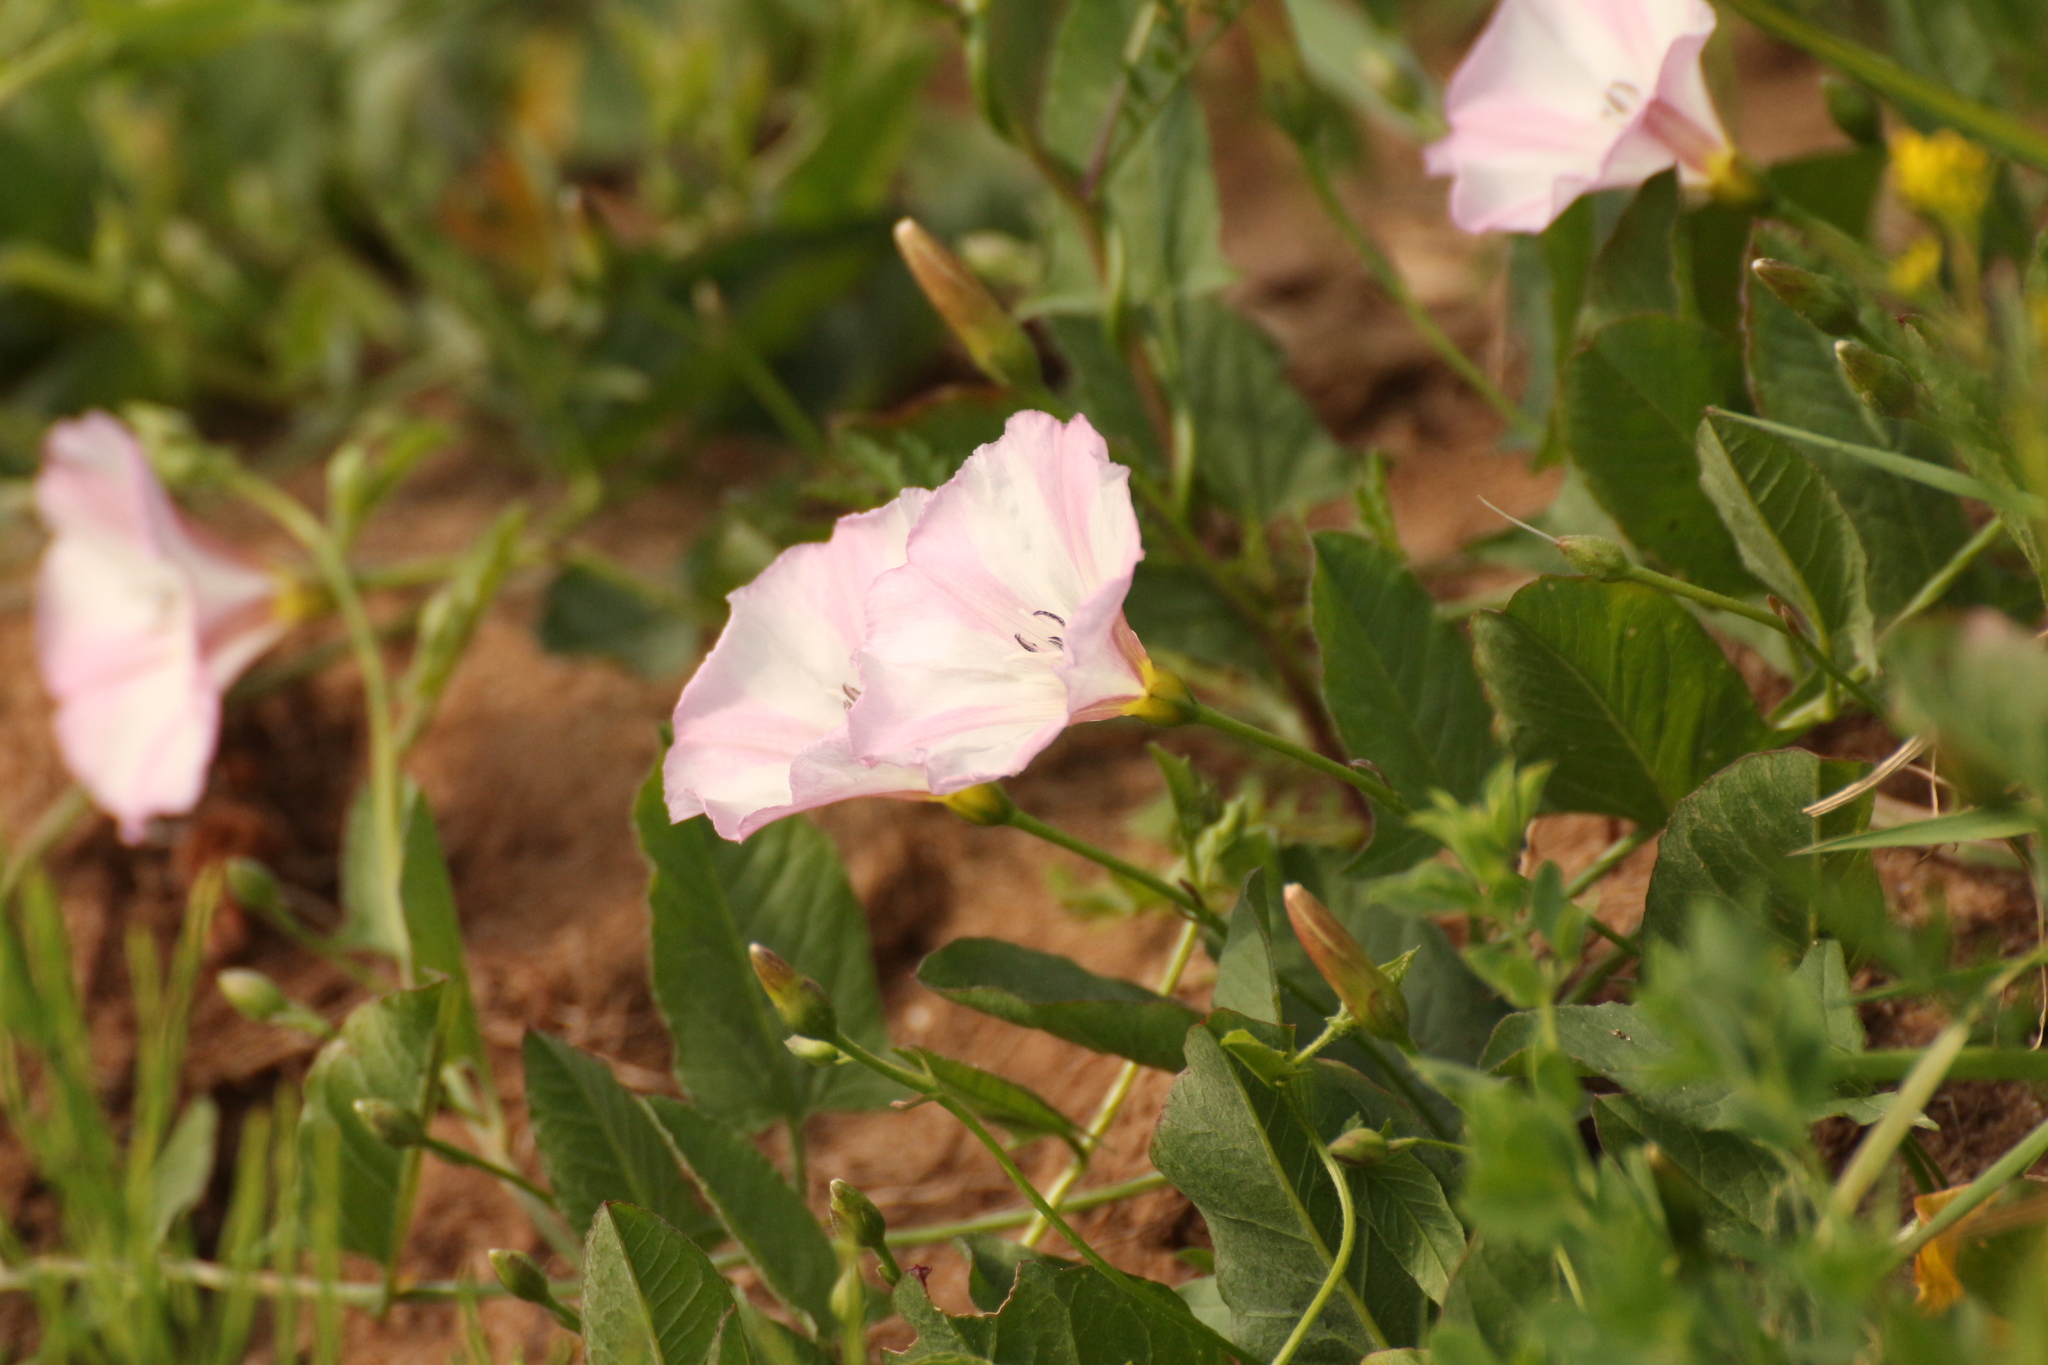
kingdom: Plantae
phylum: Tracheophyta
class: Magnoliopsida
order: Solanales
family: Convolvulaceae
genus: Convolvulus
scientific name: Convolvulus arvensis
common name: Field bindweed
